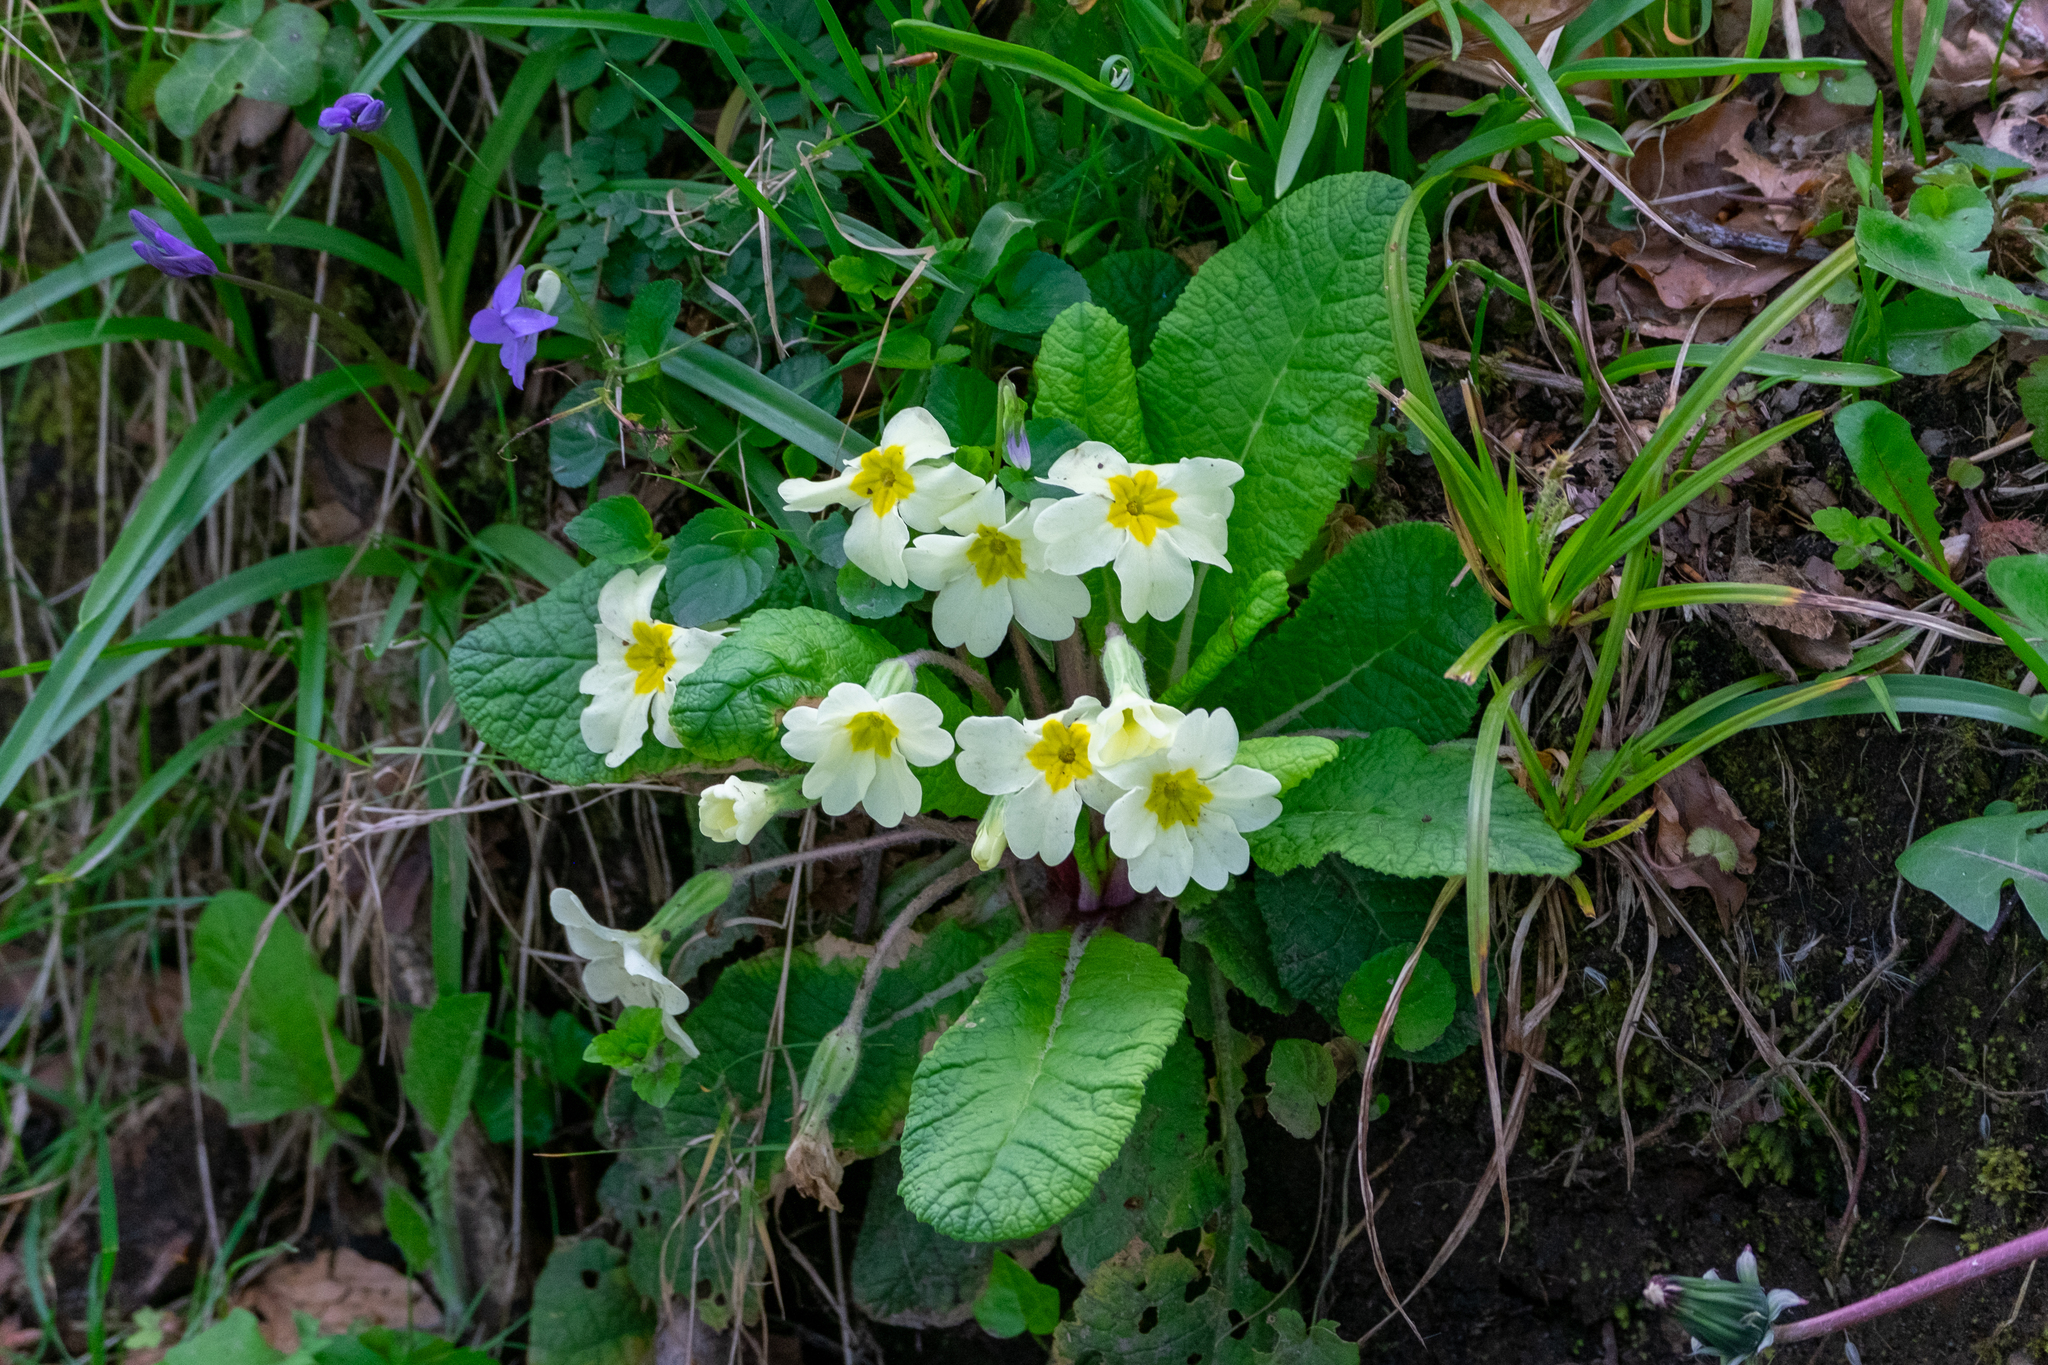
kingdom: Plantae
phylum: Tracheophyta
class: Magnoliopsida
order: Ericales
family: Primulaceae
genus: Primula
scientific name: Primula vulgaris
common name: Primrose
